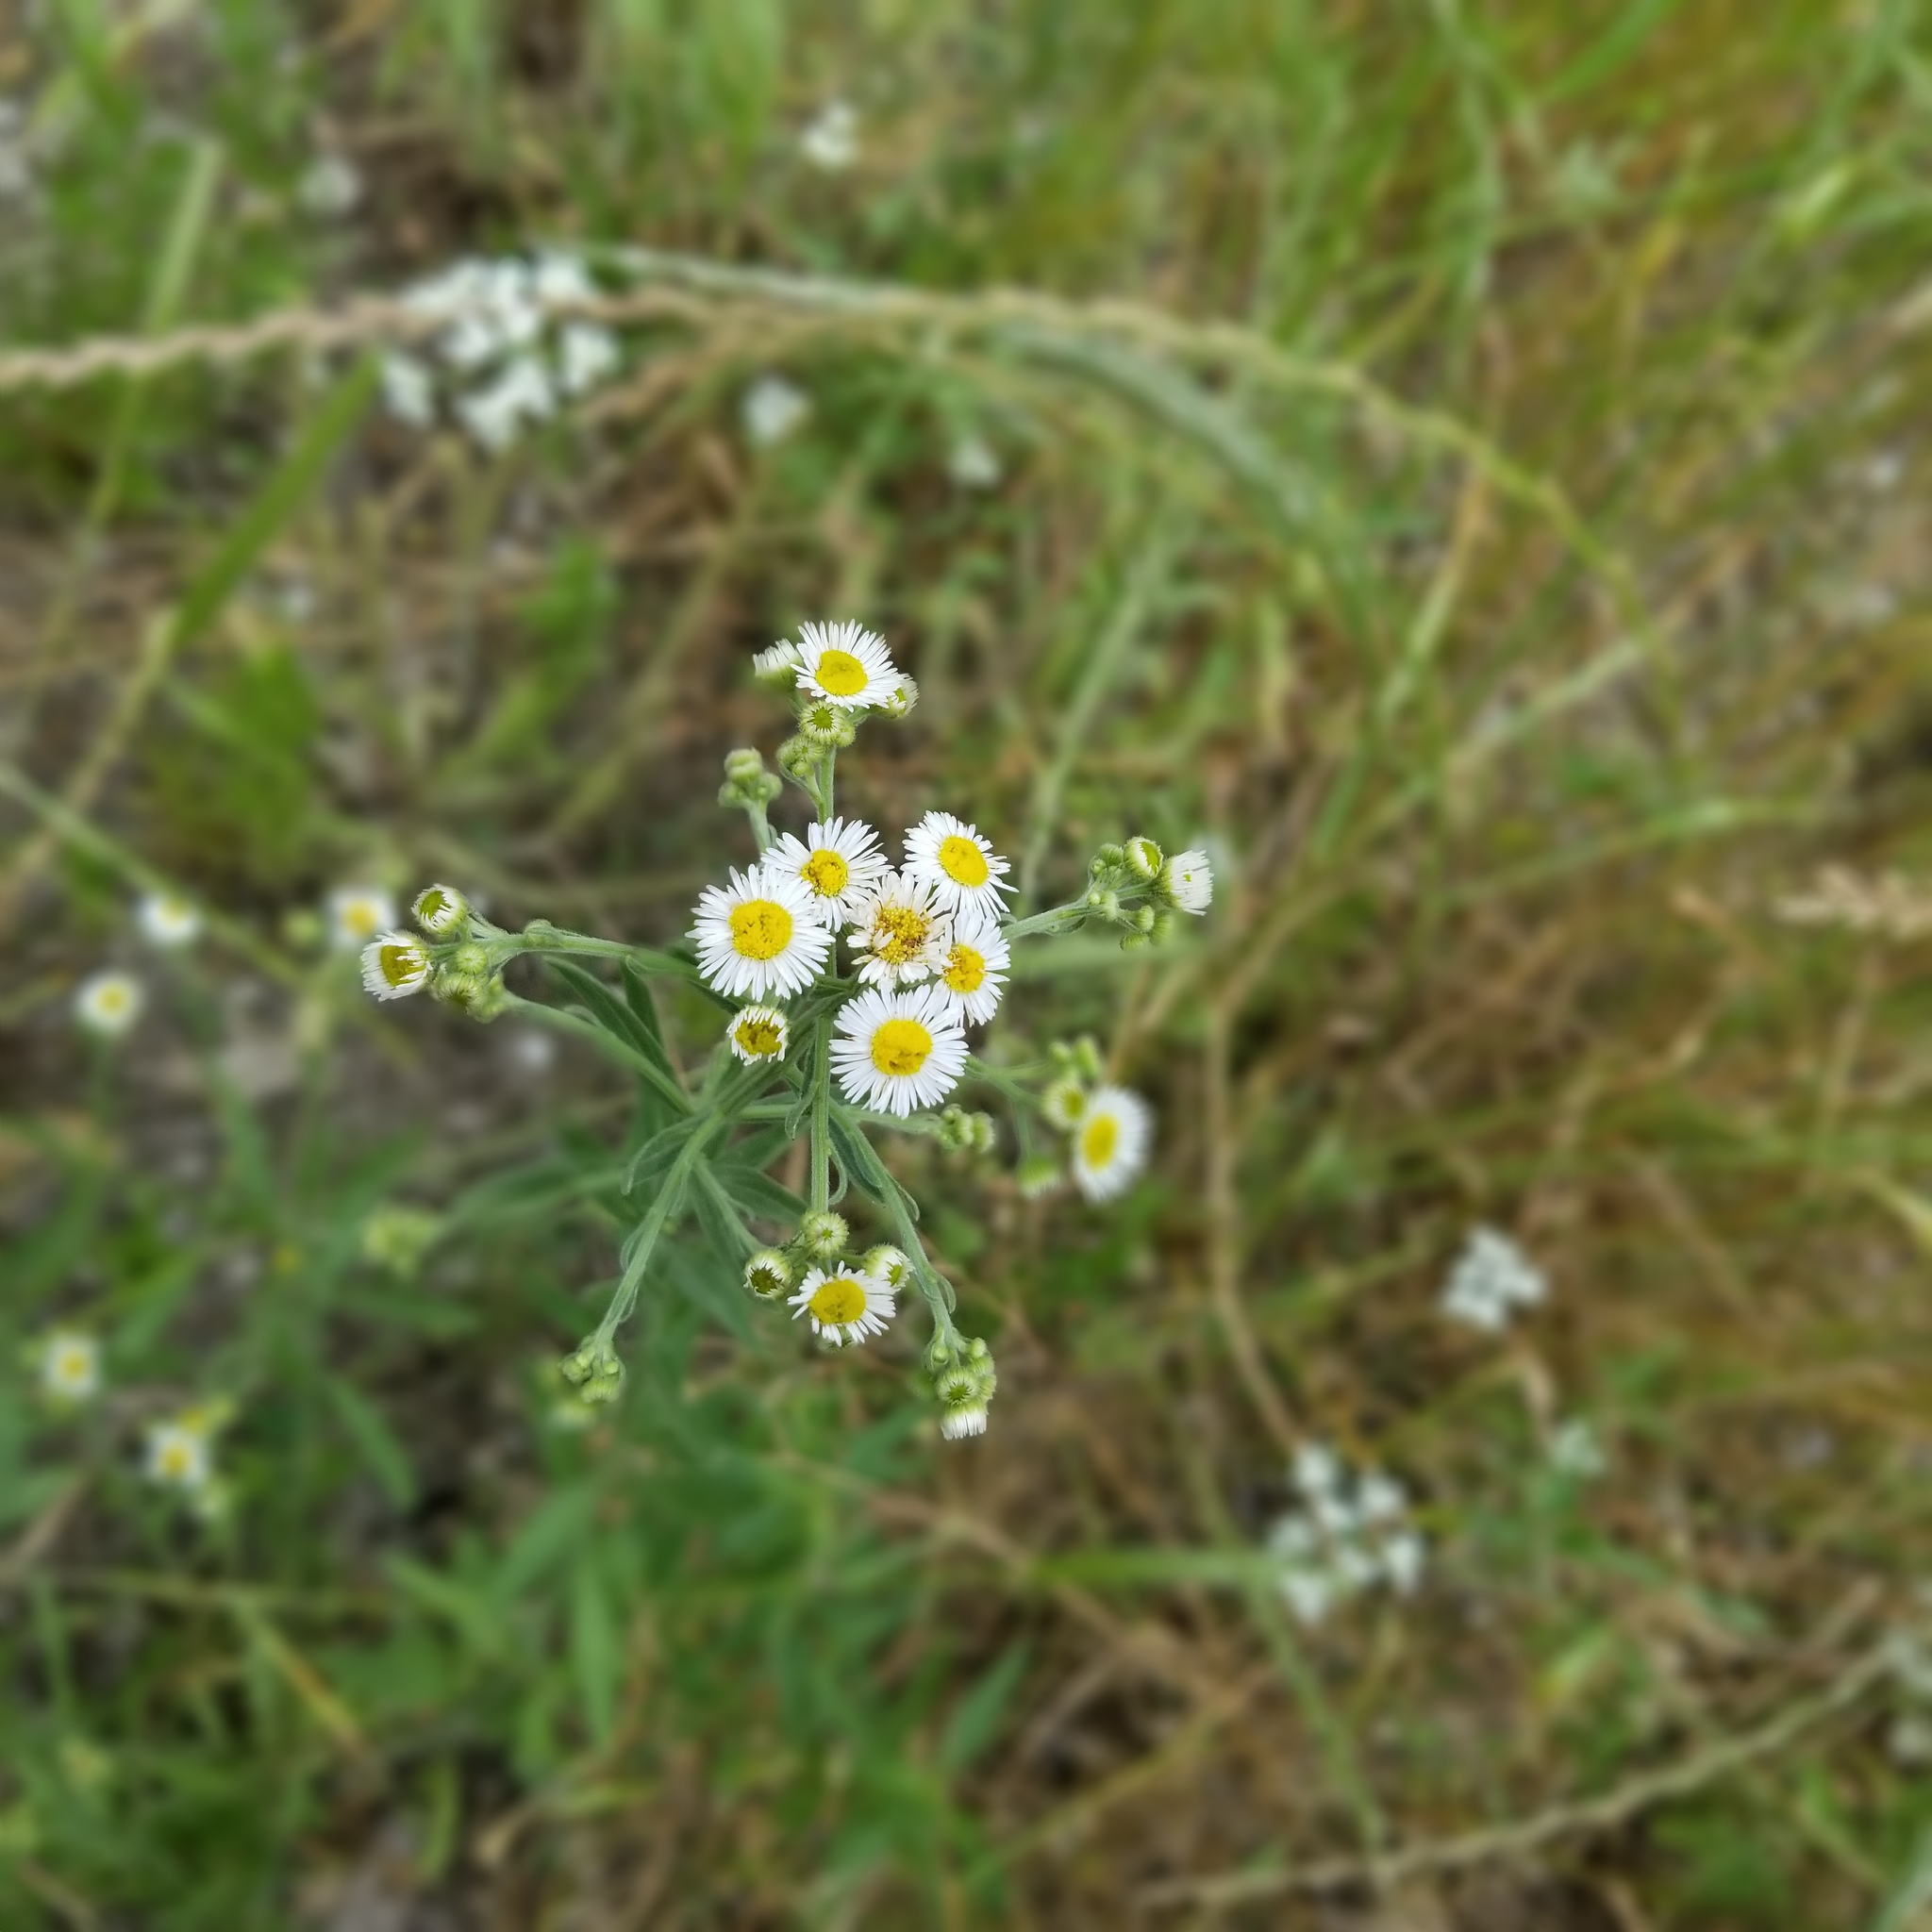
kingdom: Plantae
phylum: Tracheophyta
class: Magnoliopsida
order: Asterales
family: Asteraceae
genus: Erigeron
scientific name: Erigeron annuus
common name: Tall fleabane
